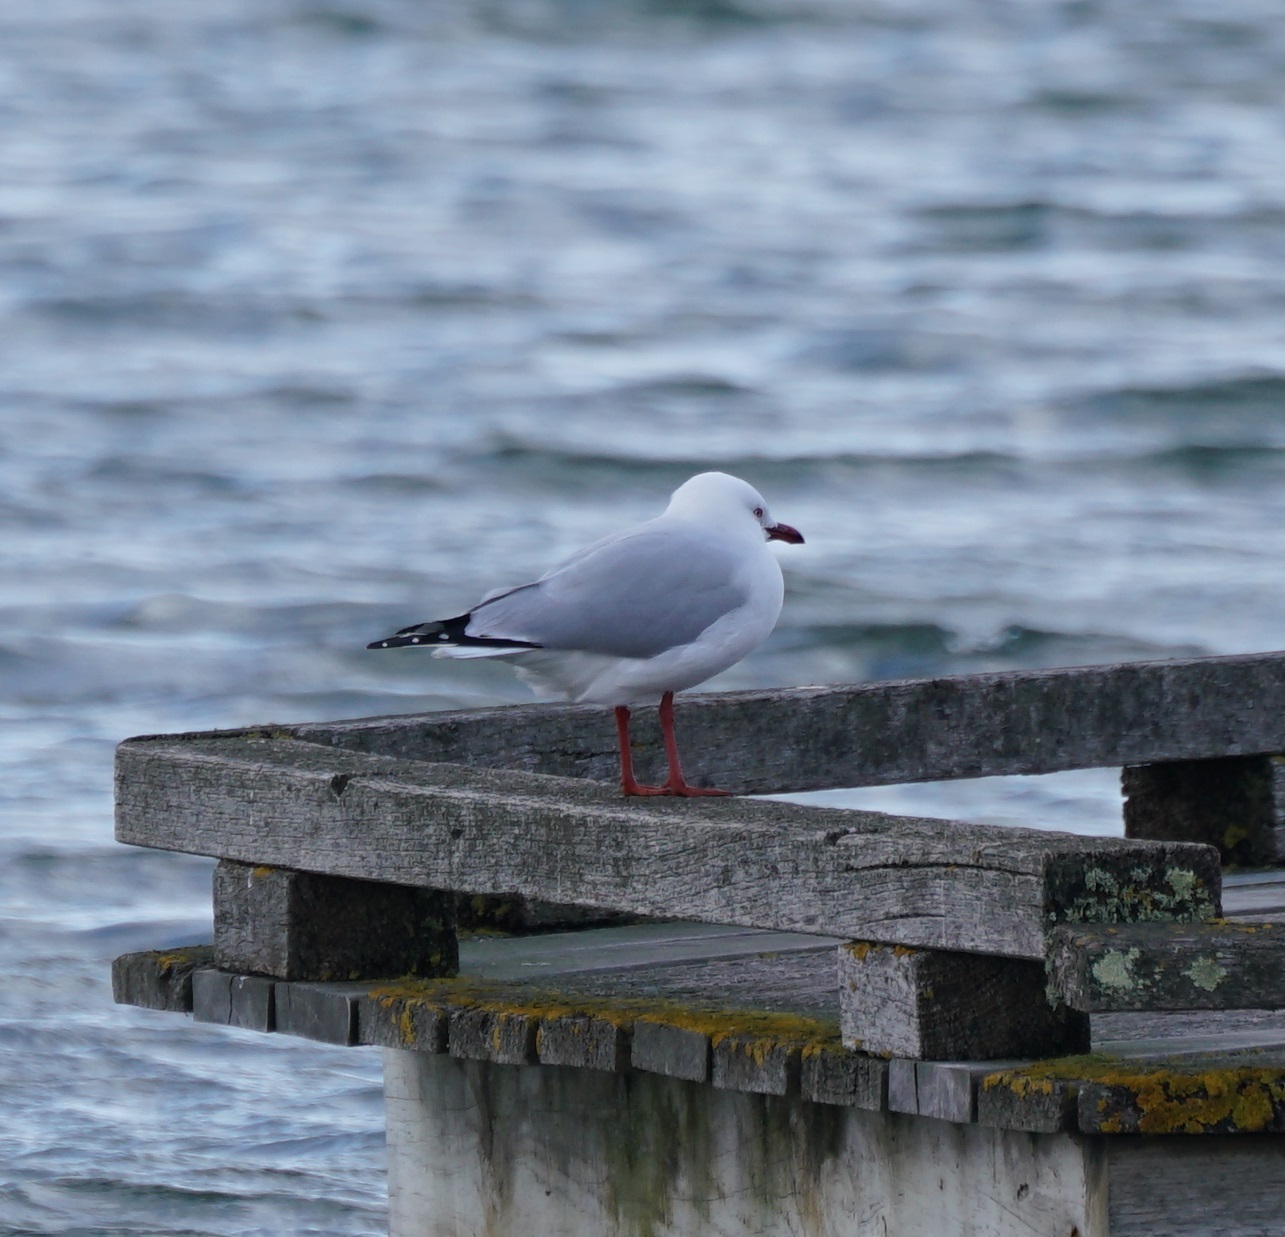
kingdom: Animalia
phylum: Chordata
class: Aves
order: Charadriiformes
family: Laridae
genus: Chroicocephalus
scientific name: Chroicocephalus novaehollandiae
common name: Silver gull
